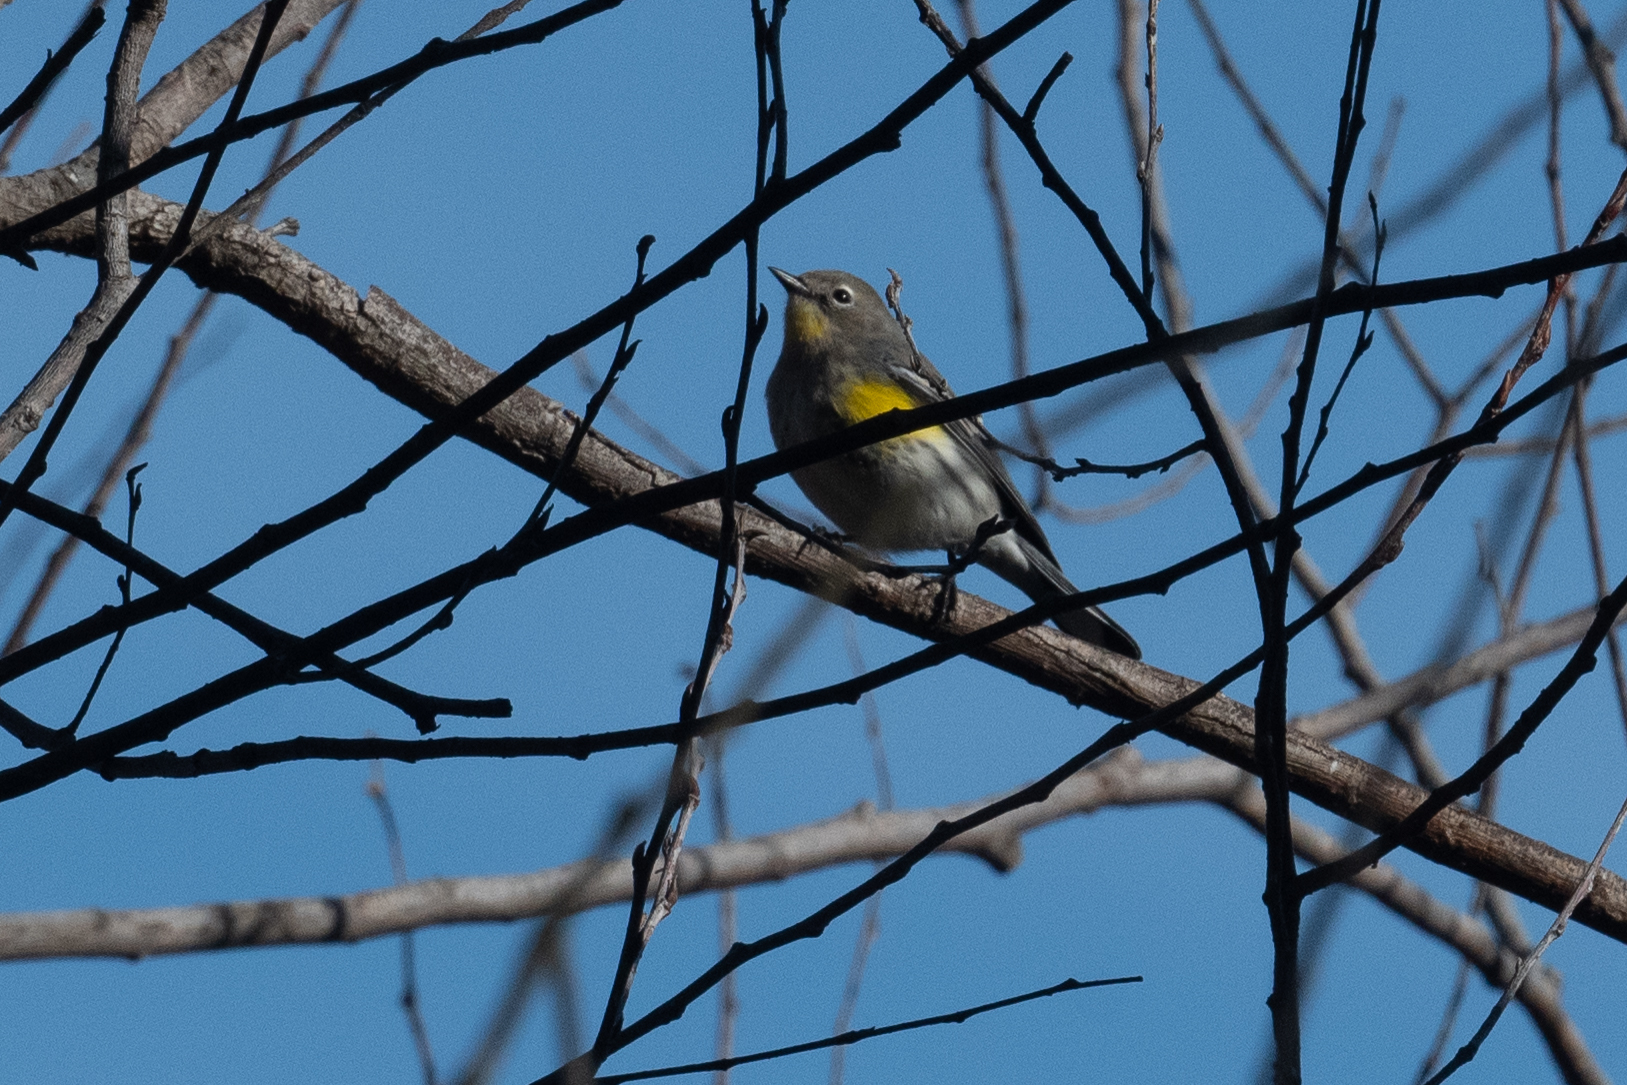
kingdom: Animalia
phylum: Chordata
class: Aves
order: Passeriformes
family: Parulidae
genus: Setophaga
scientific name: Setophaga coronata
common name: Myrtle warbler
